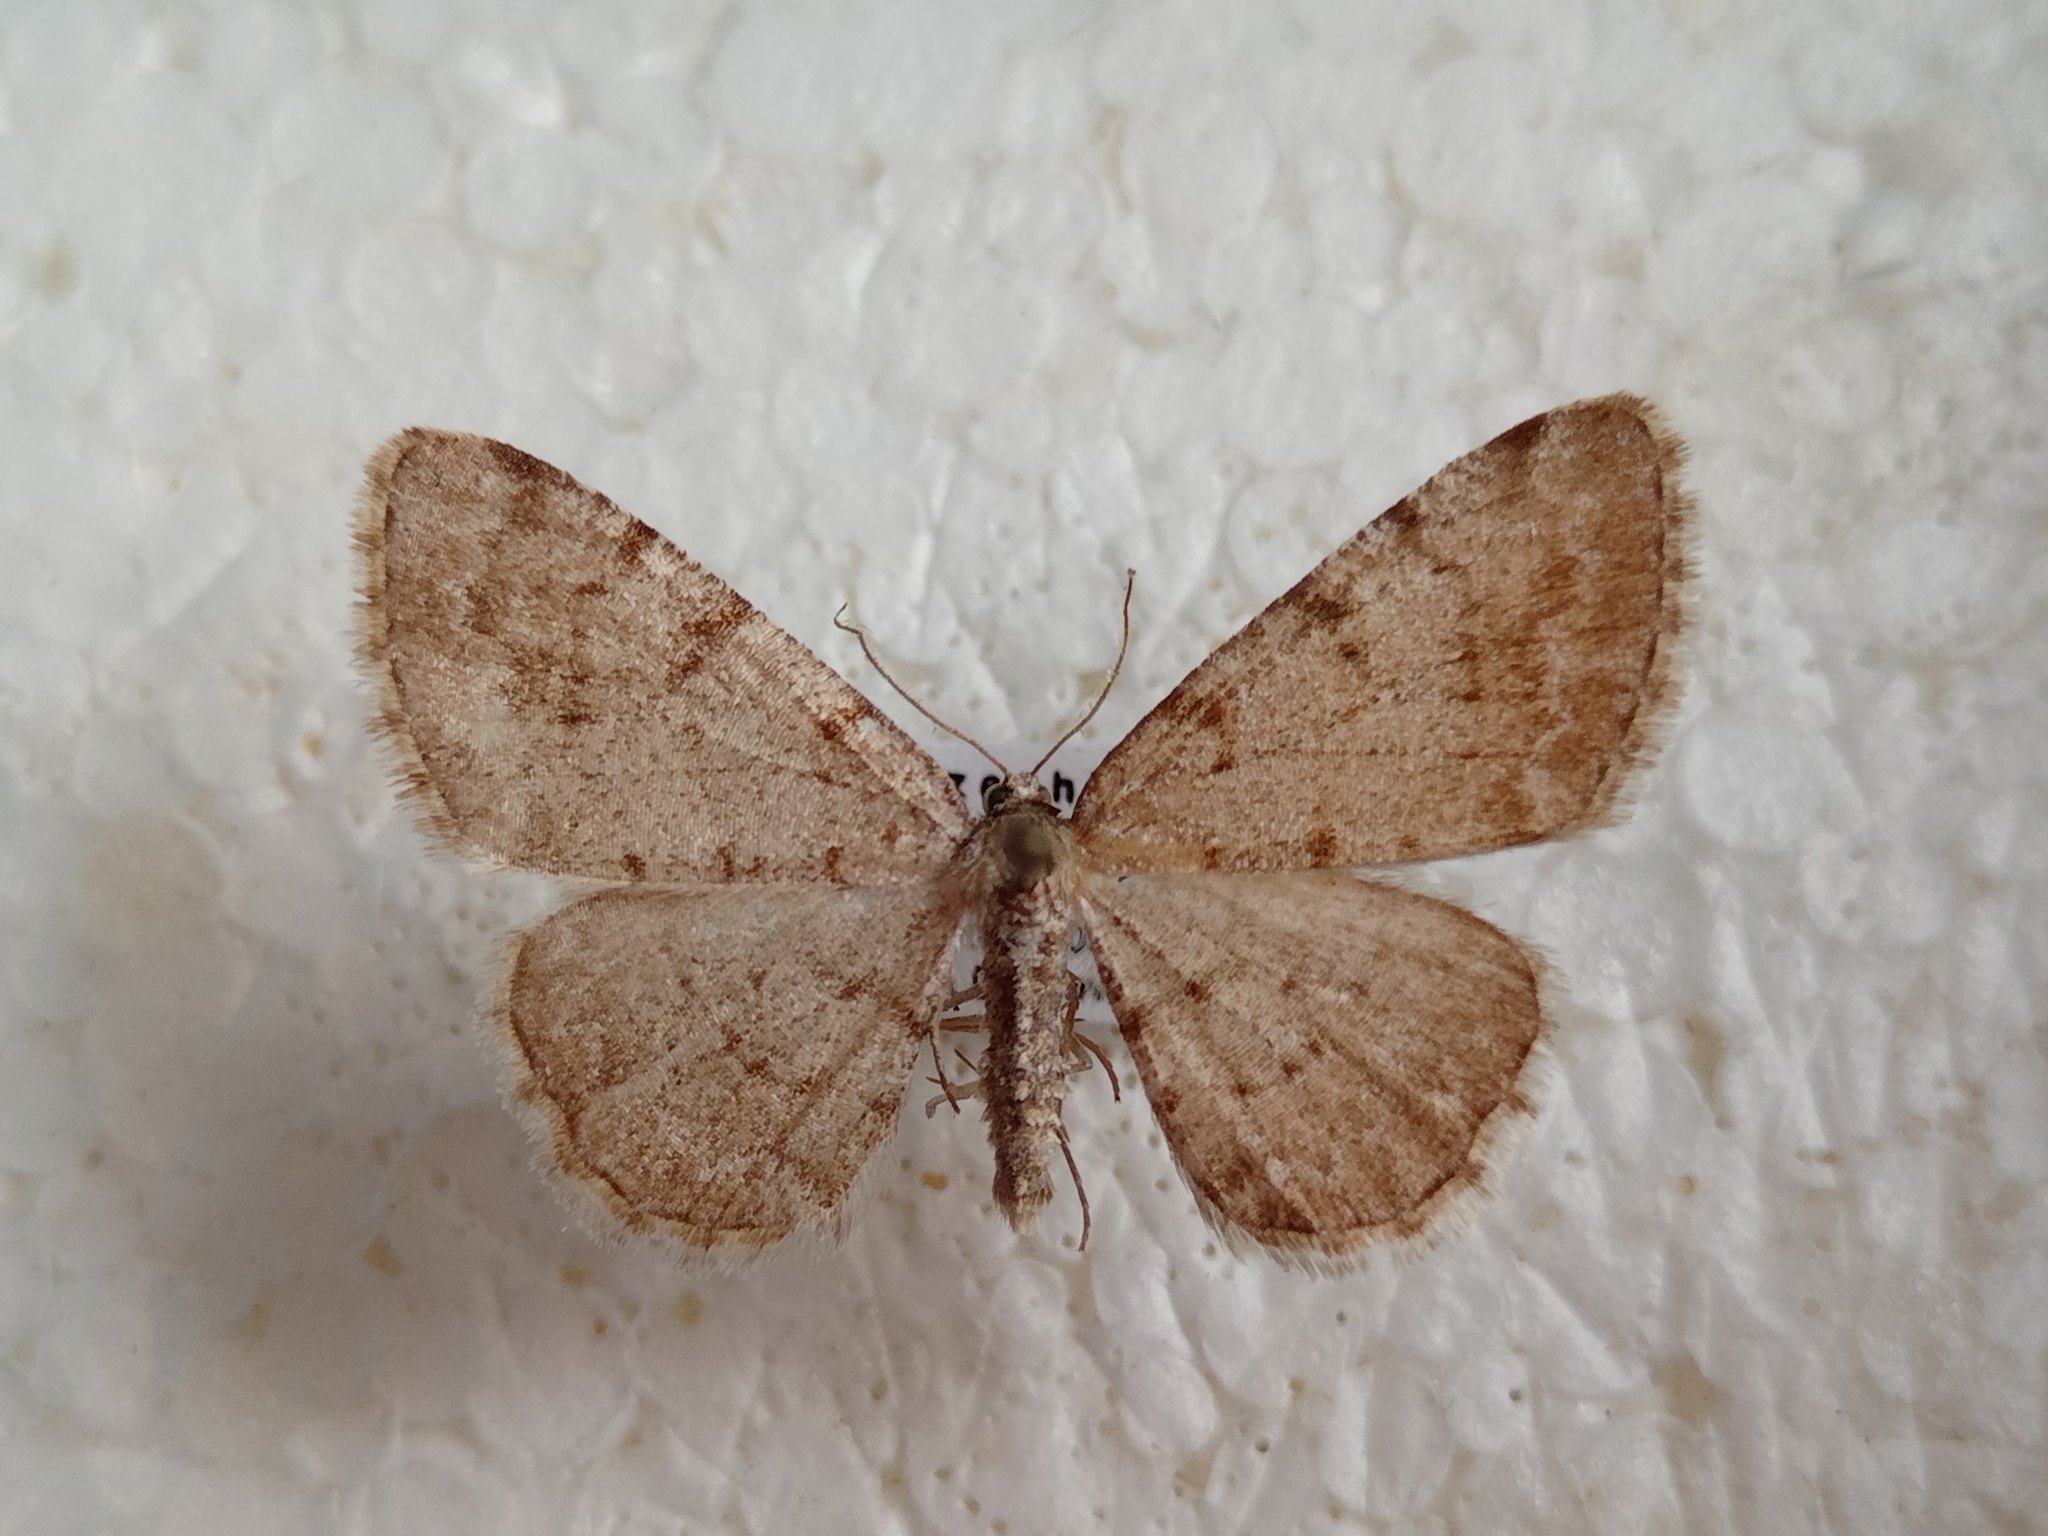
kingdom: Animalia
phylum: Arthropoda
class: Insecta
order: Lepidoptera
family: Geometridae
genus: Aethalura
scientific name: Aethalura punctulata
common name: Grey birch
